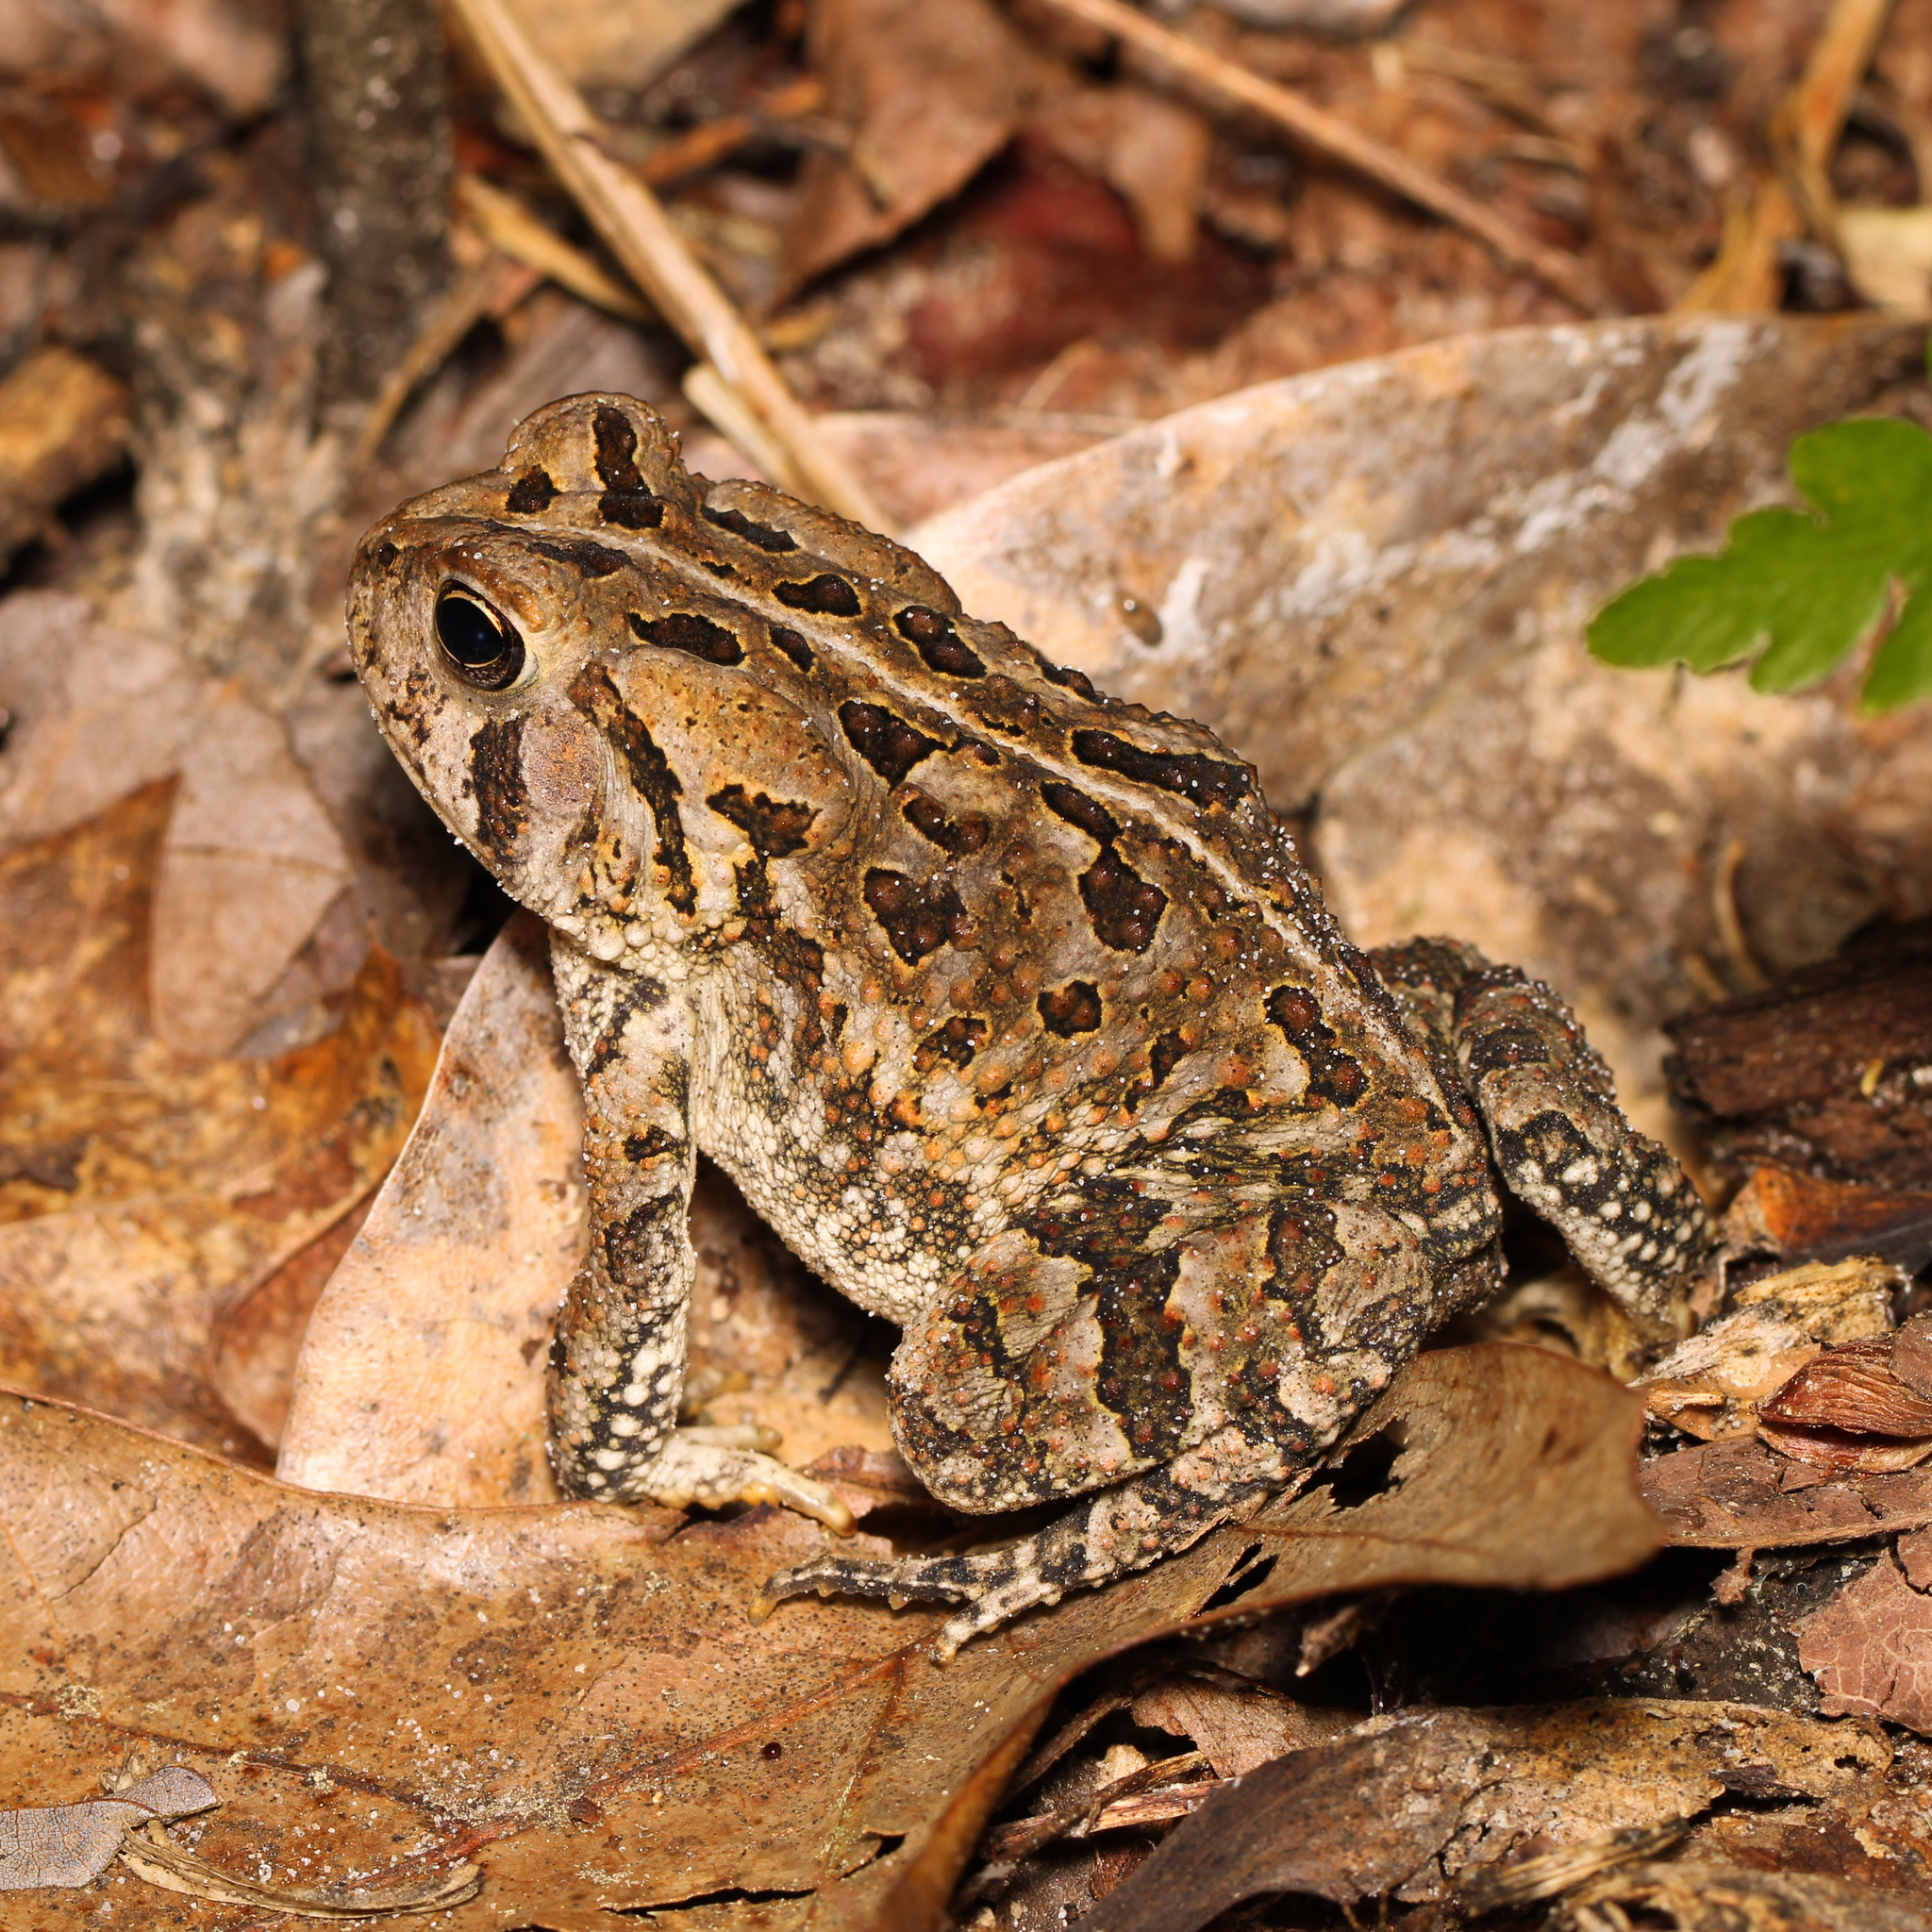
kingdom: Animalia
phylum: Chordata
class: Amphibia
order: Anura
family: Bufonidae
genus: Anaxyrus
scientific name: Anaxyrus fowleri
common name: Fowler's toad
